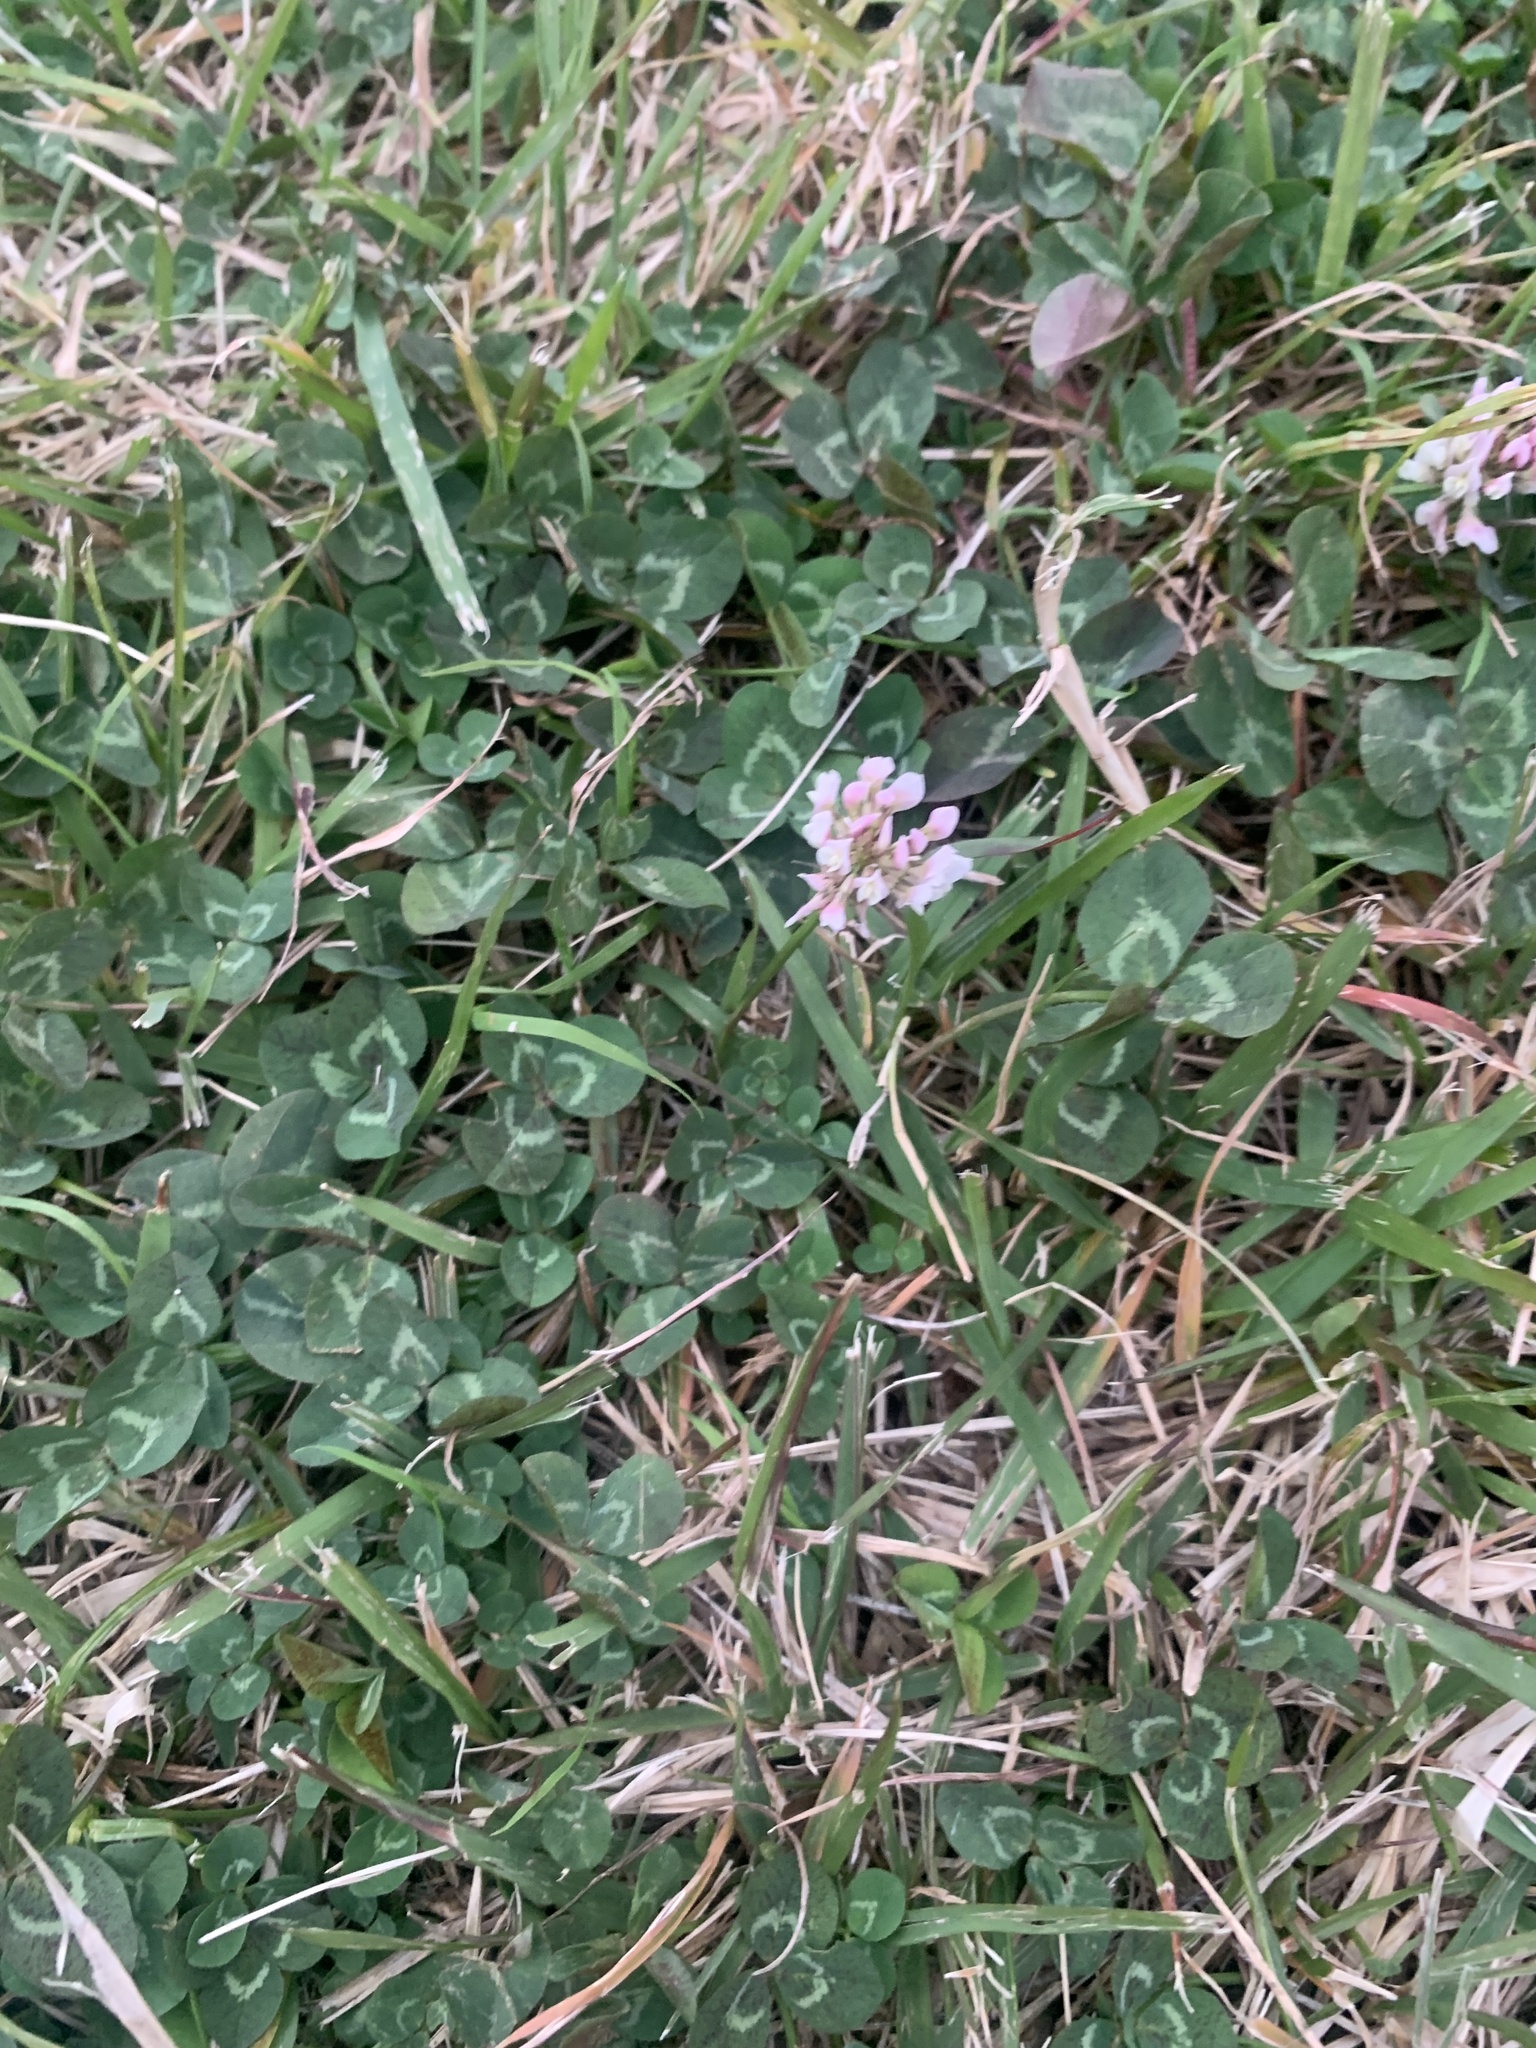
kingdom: Plantae
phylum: Tracheophyta
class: Magnoliopsida
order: Fabales
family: Fabaceae
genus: Trifolium
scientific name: Trifolium repens
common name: White clover
